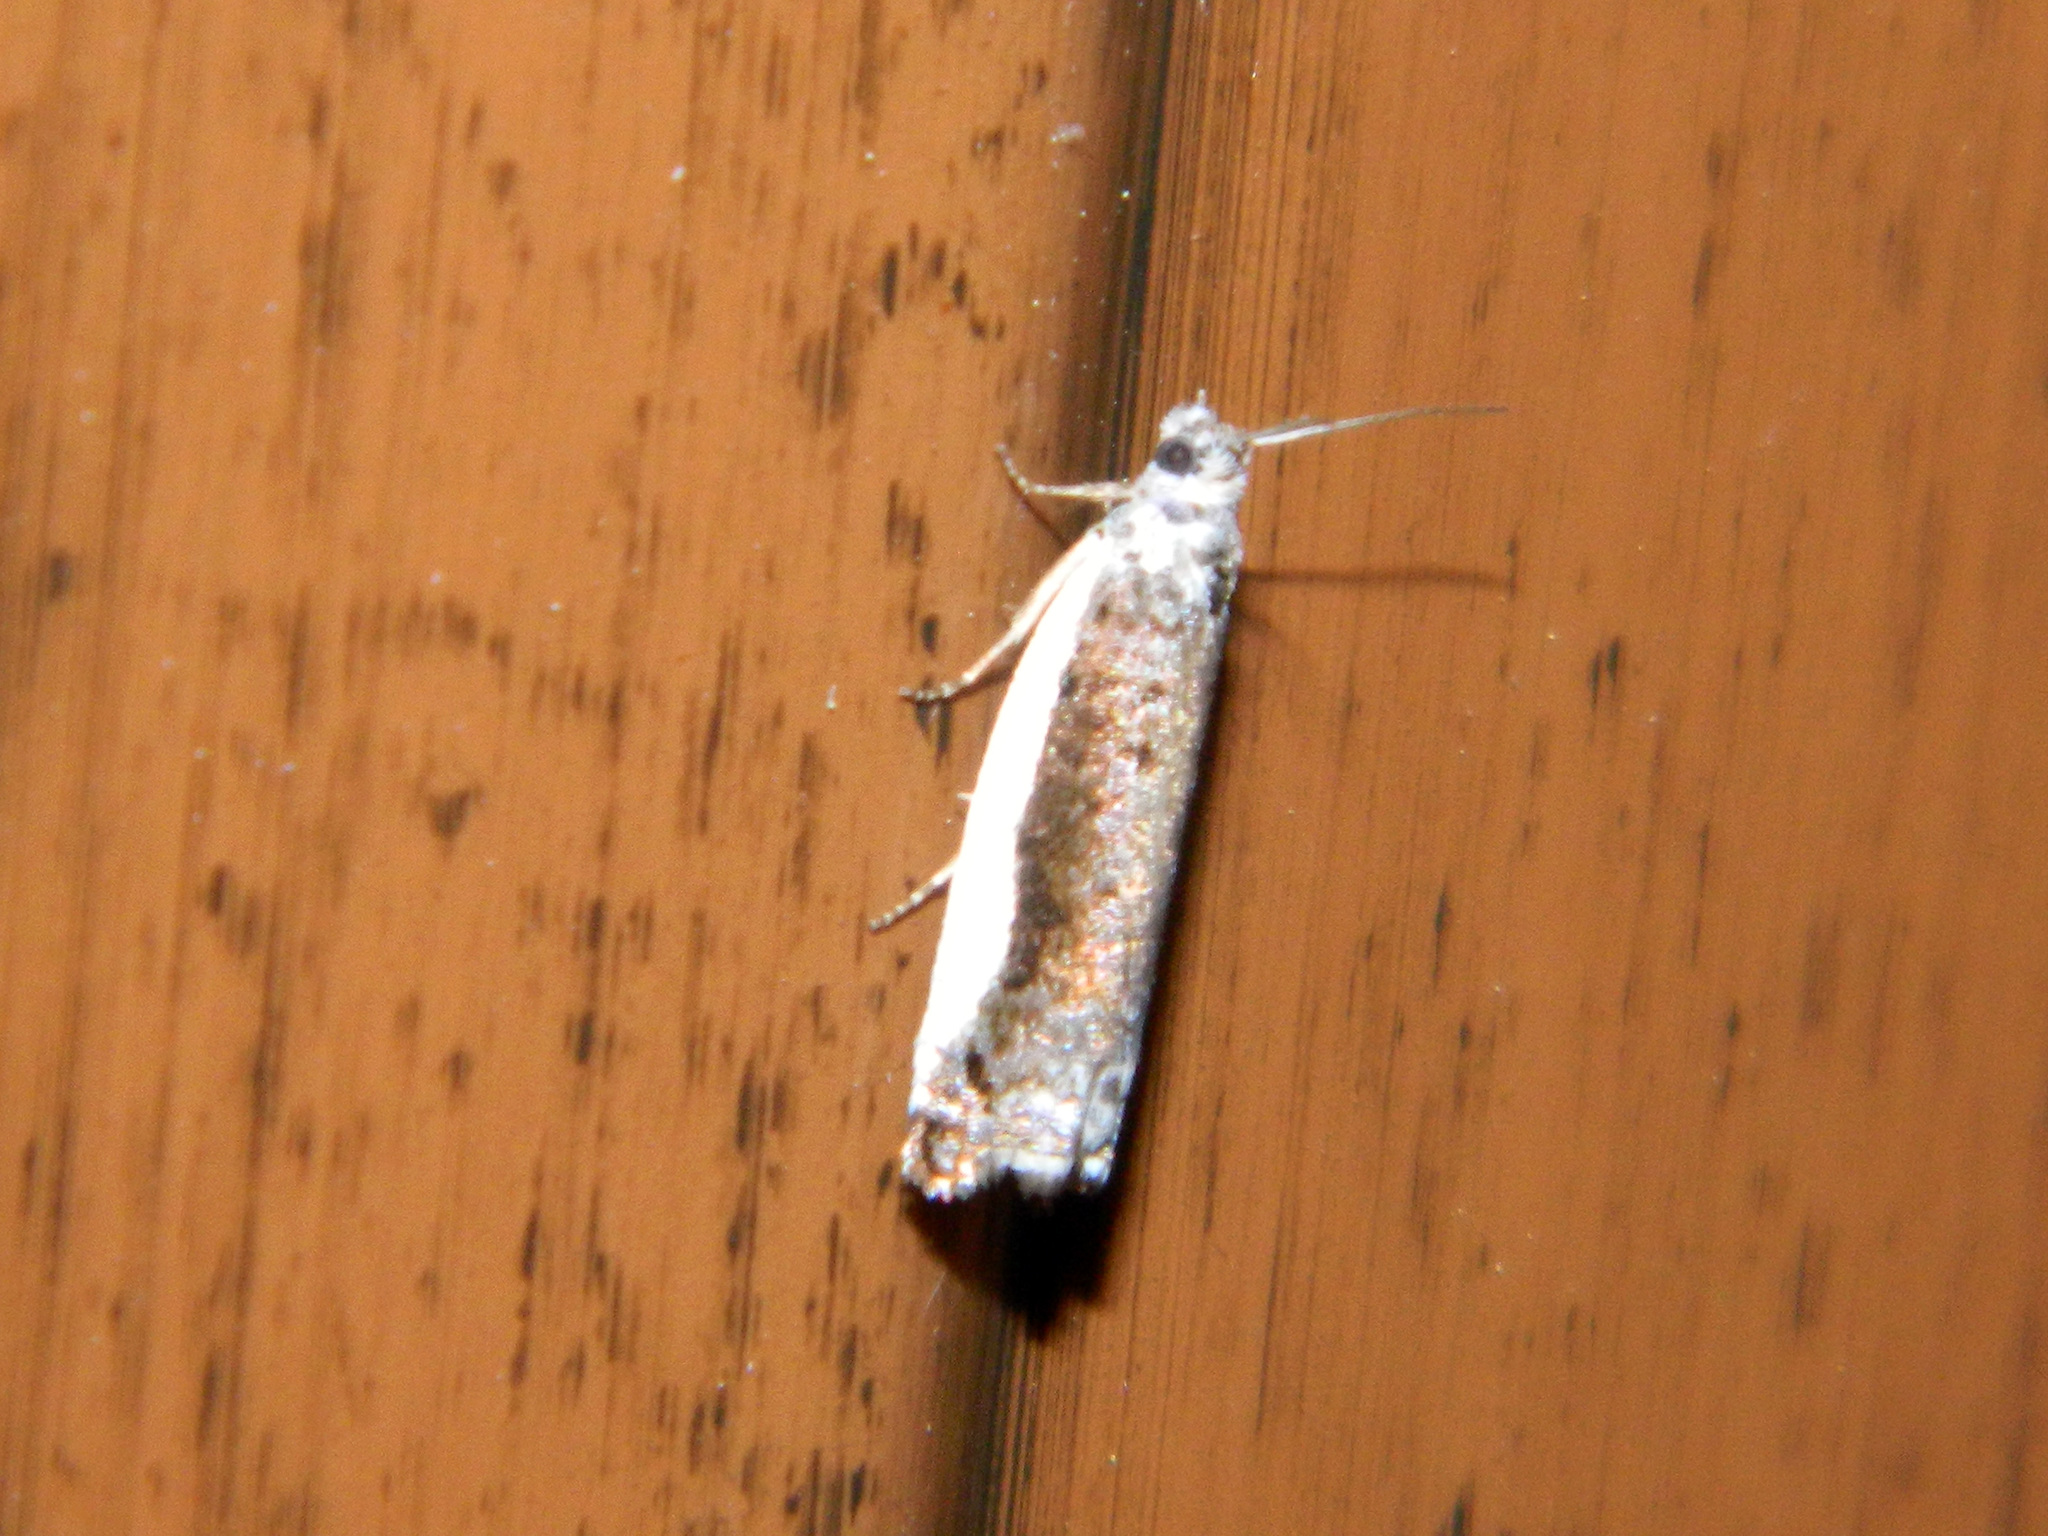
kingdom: Animalia
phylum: Arthropoda
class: Insecta
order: Lepidoptera
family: Tortricidae
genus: Ancylis
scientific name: Ancylis albacostana
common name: White-edged ancylis moth
